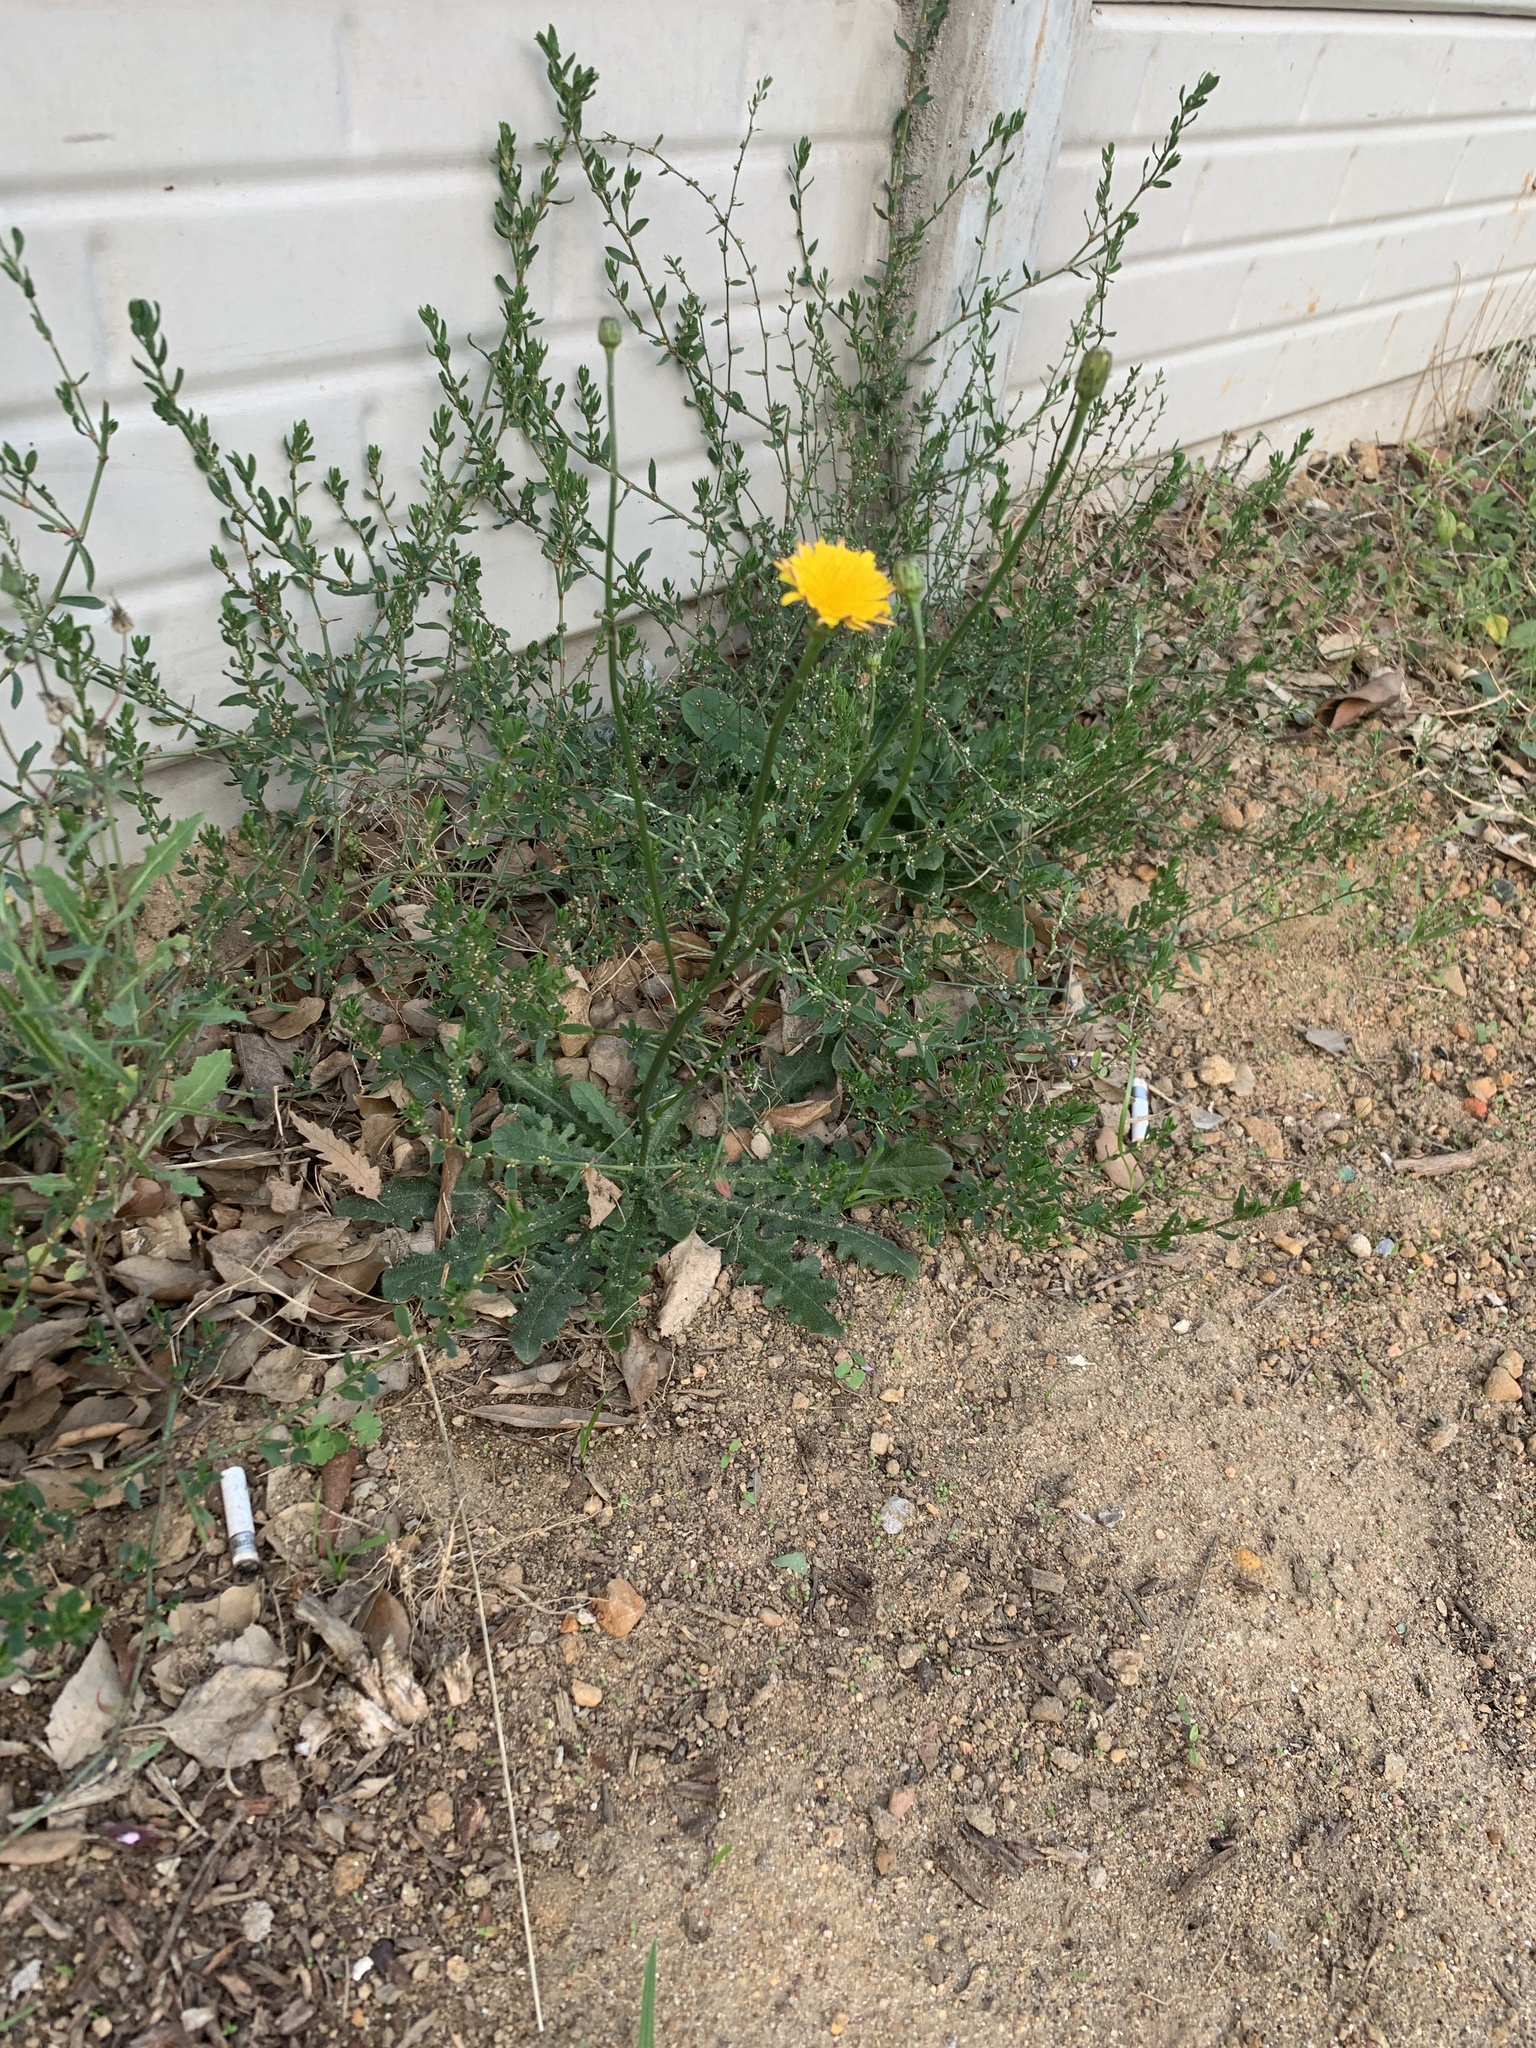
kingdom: Plantae
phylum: Tracheophyta
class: Magnoliopsida
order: Asterales
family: Asteraceae
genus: Hypochaeris
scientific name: Hypochaeris radicata
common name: Flatweed
